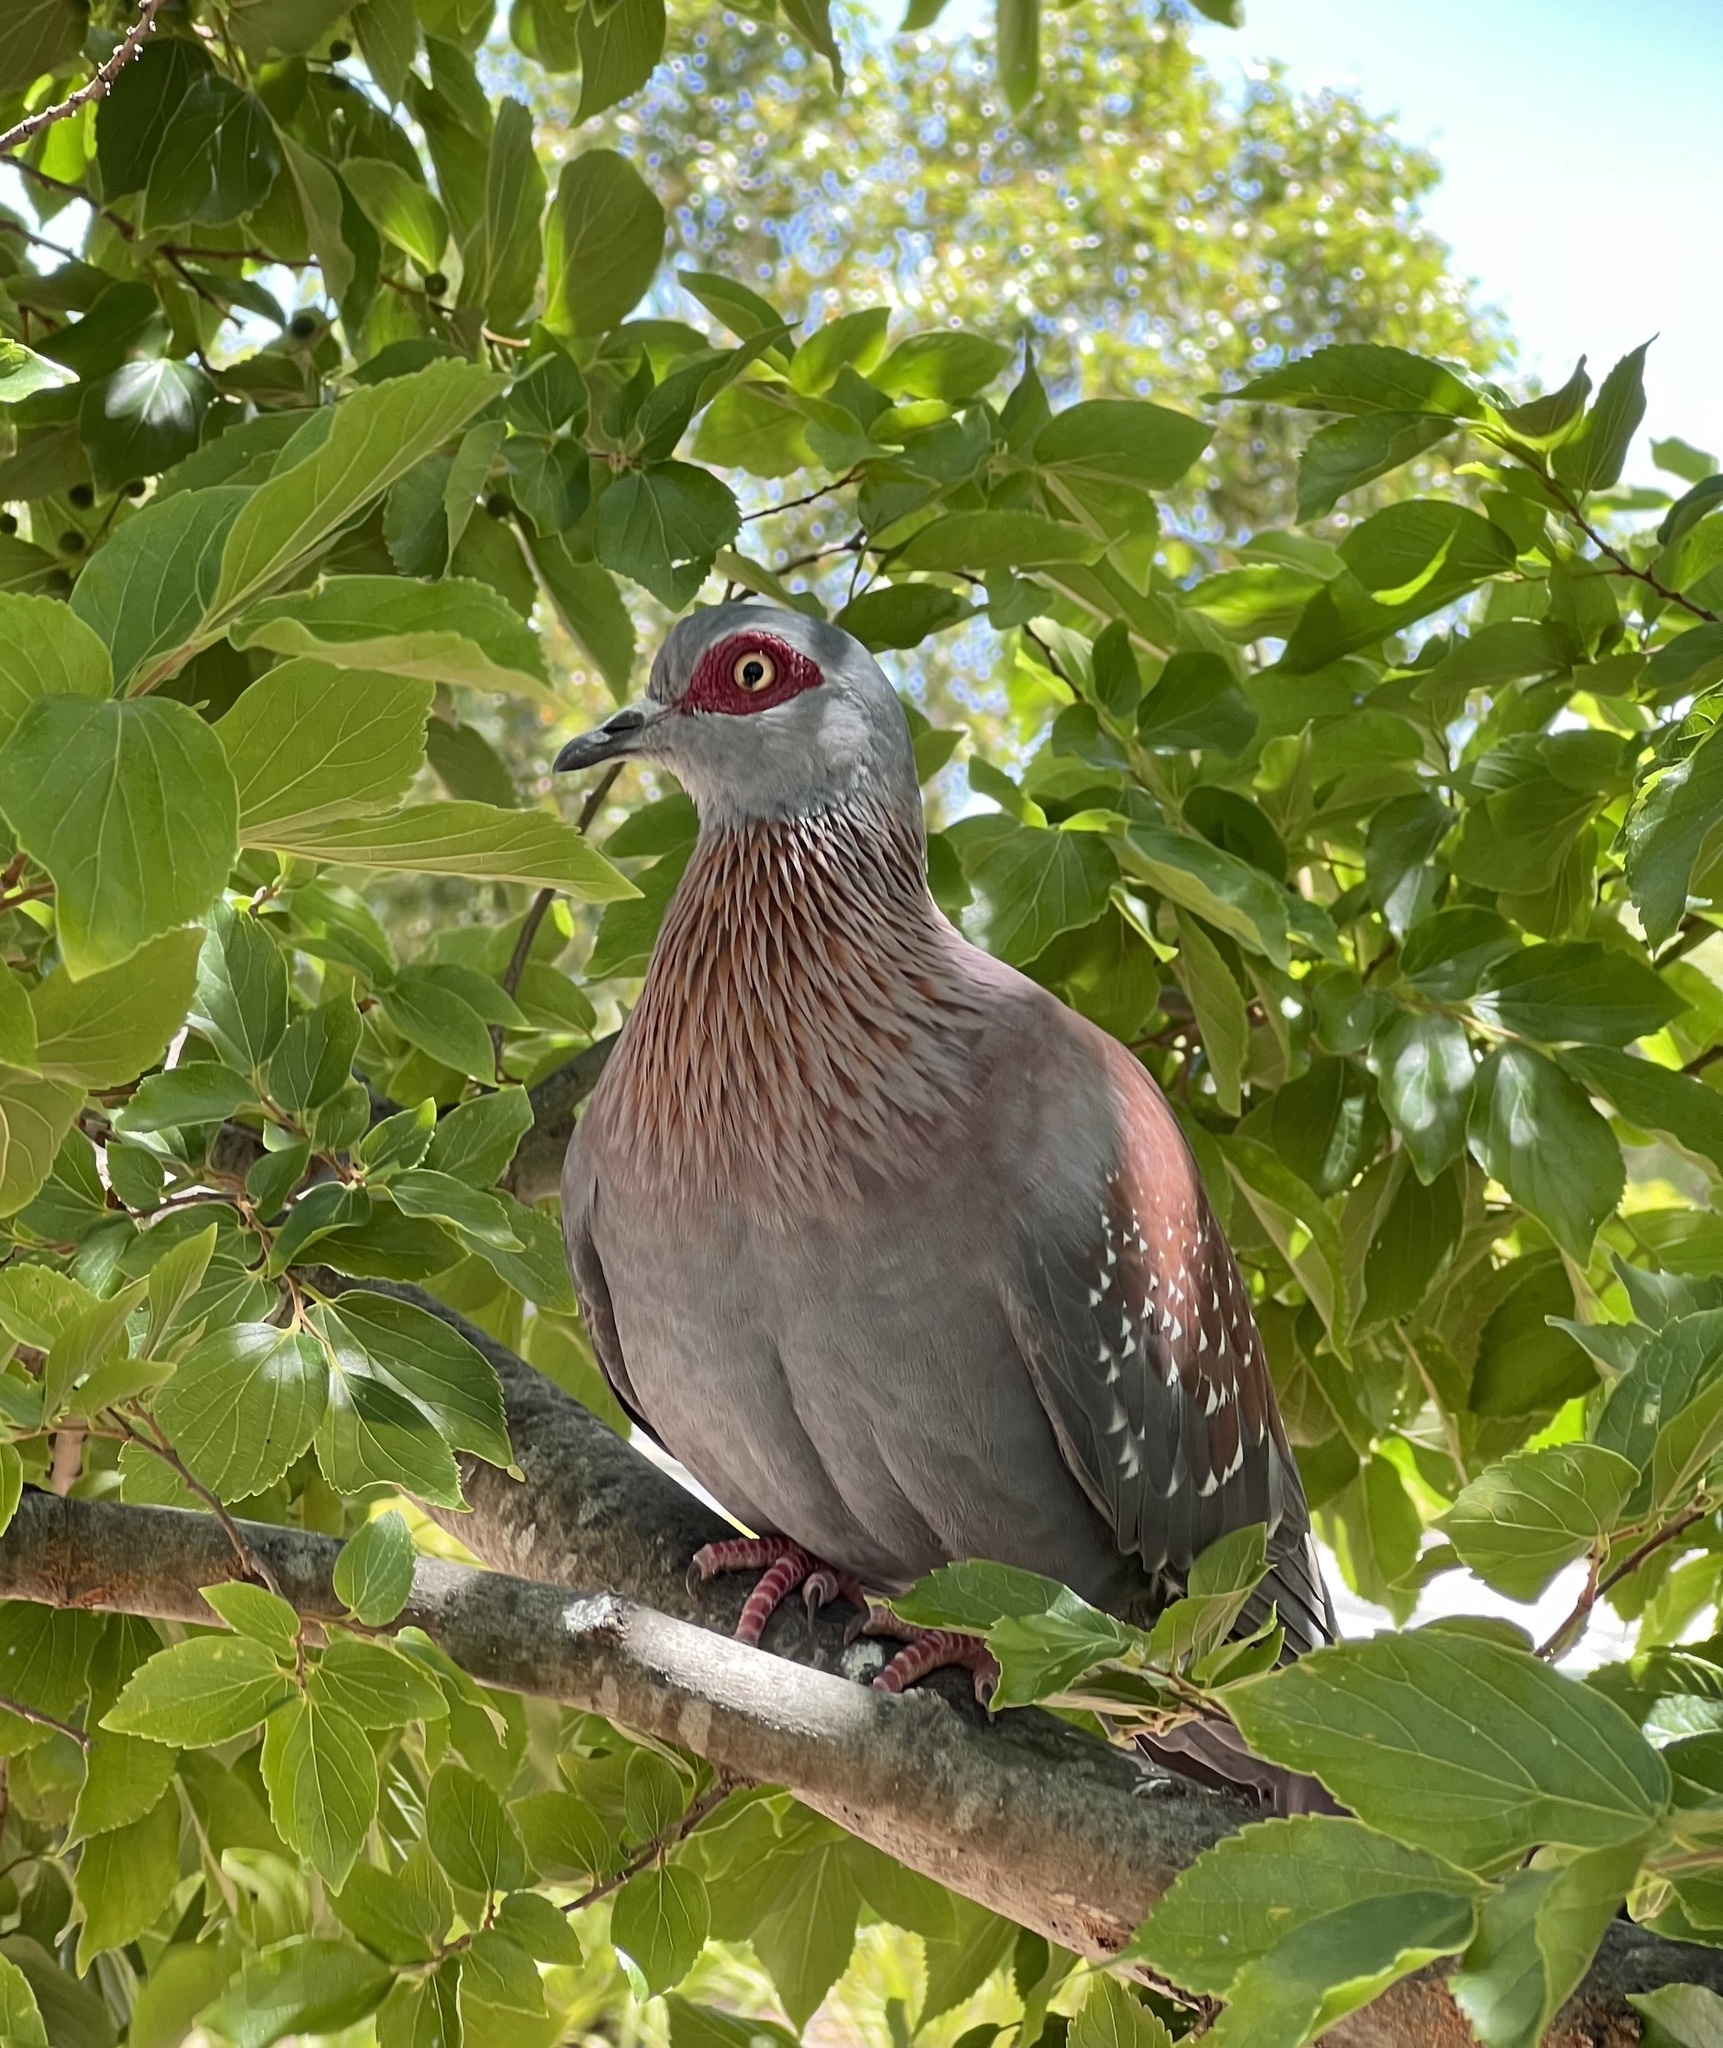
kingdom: Animalia
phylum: Chordata
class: Aves
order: Columbiformes
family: Columbidae
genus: Columba
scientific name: Columba guinea
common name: Speckled pigeon
